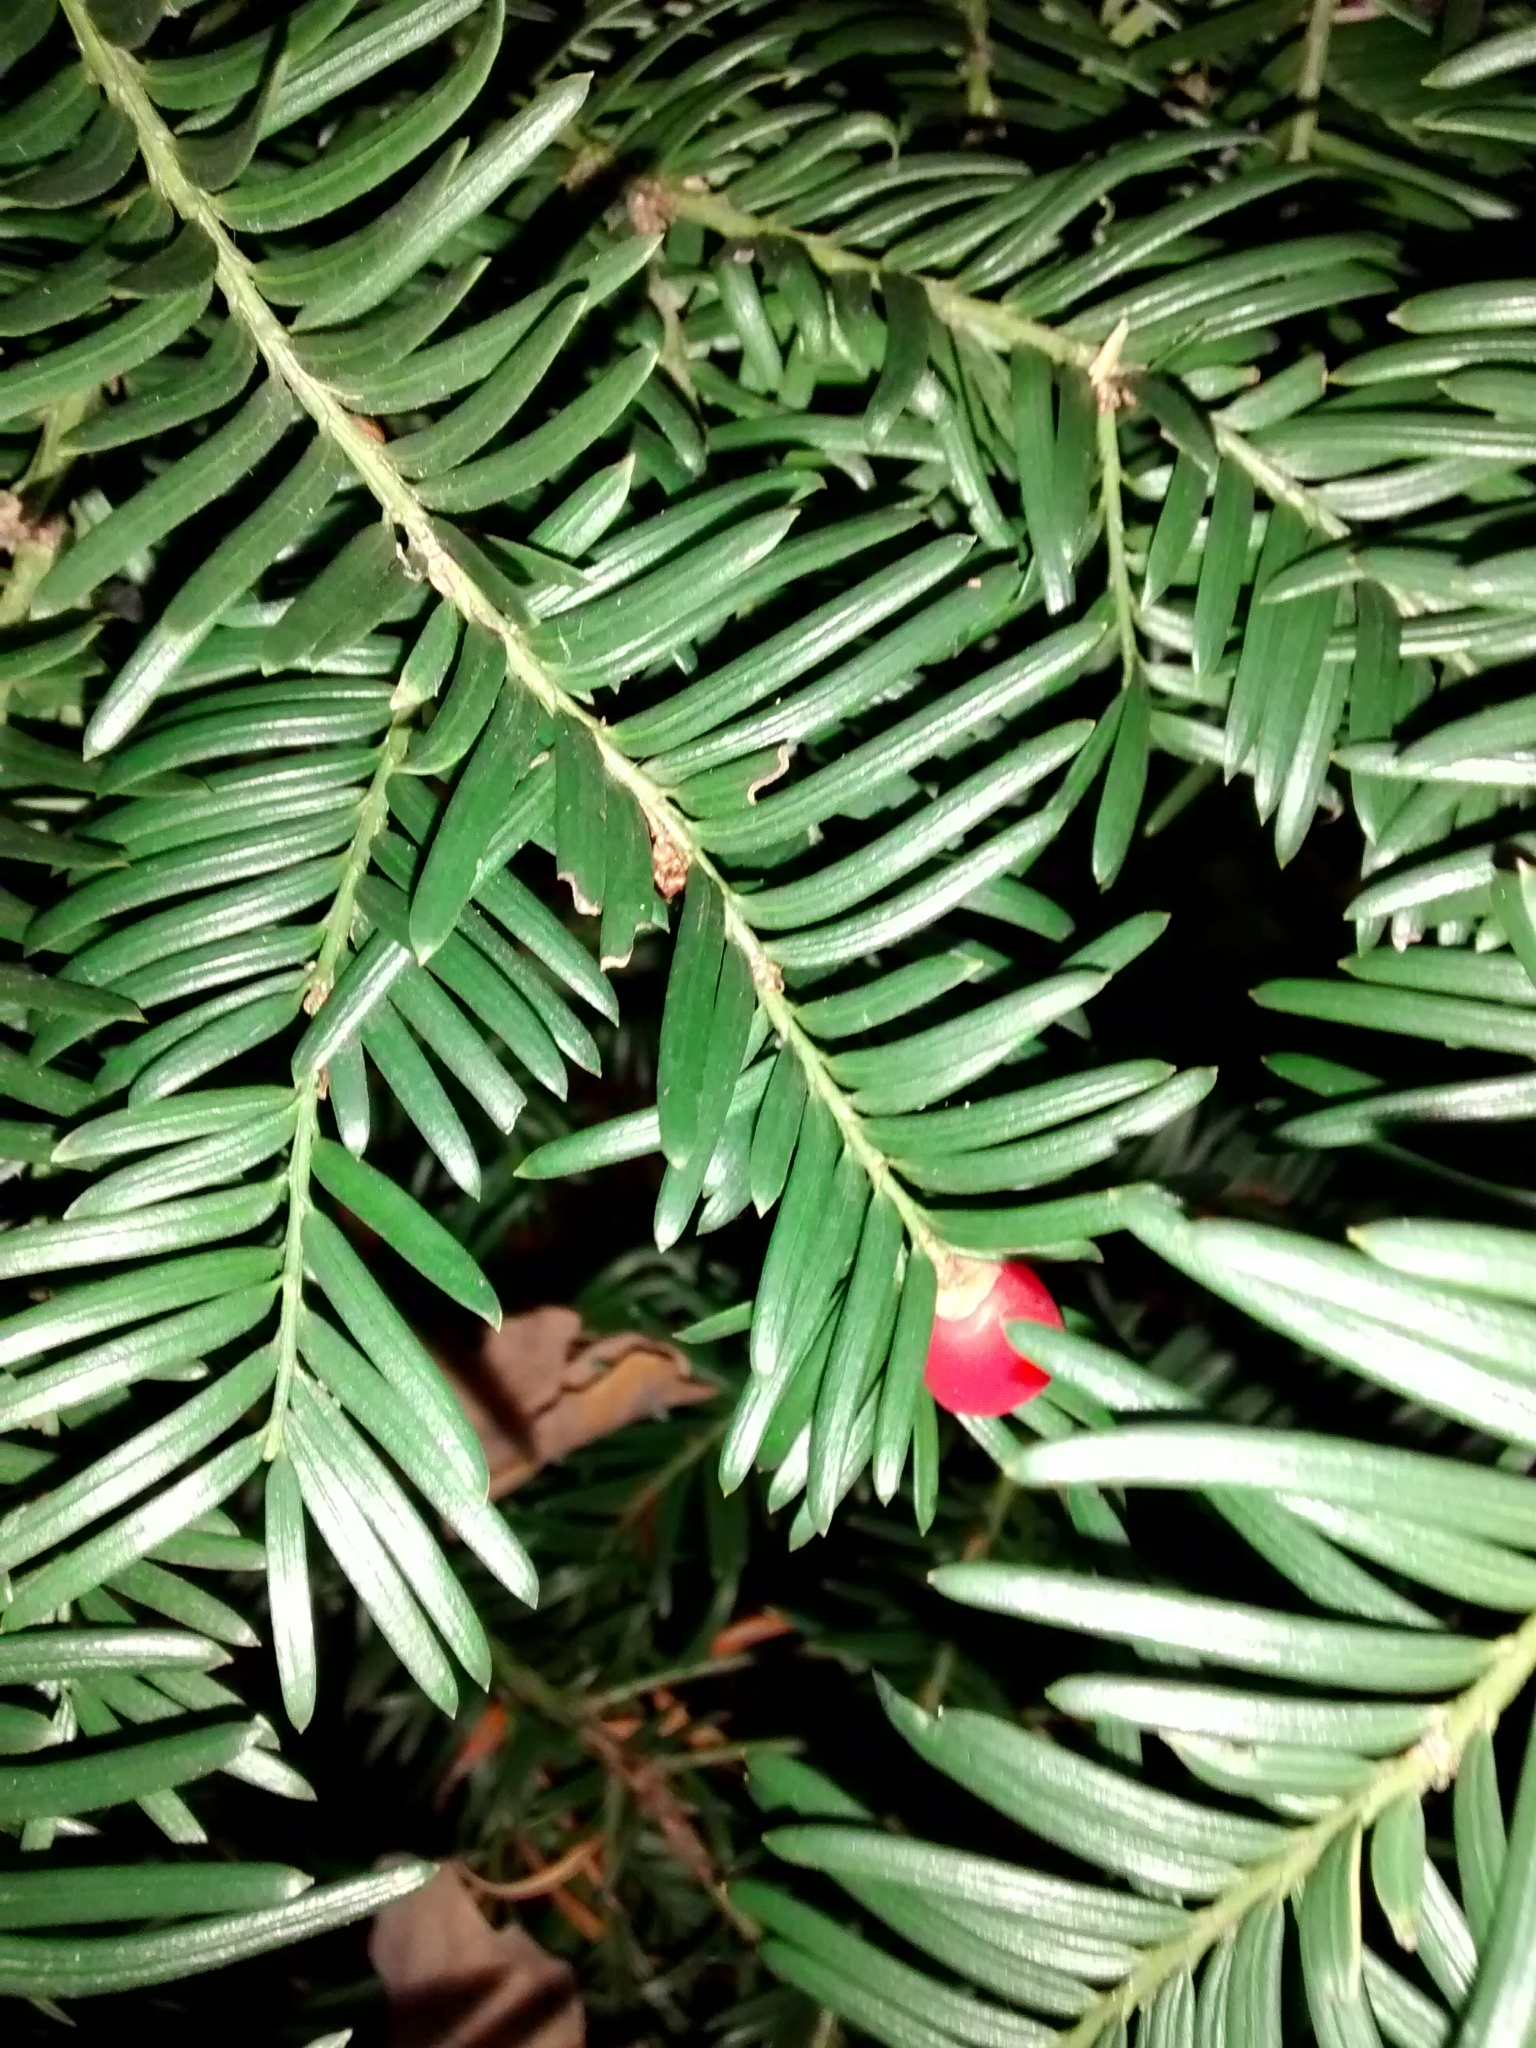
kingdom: Plantae
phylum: Tracheophyta
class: Pinopsida
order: Pinales
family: Taxaceae
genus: Taxus
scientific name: Taxus baccata
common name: Yew
